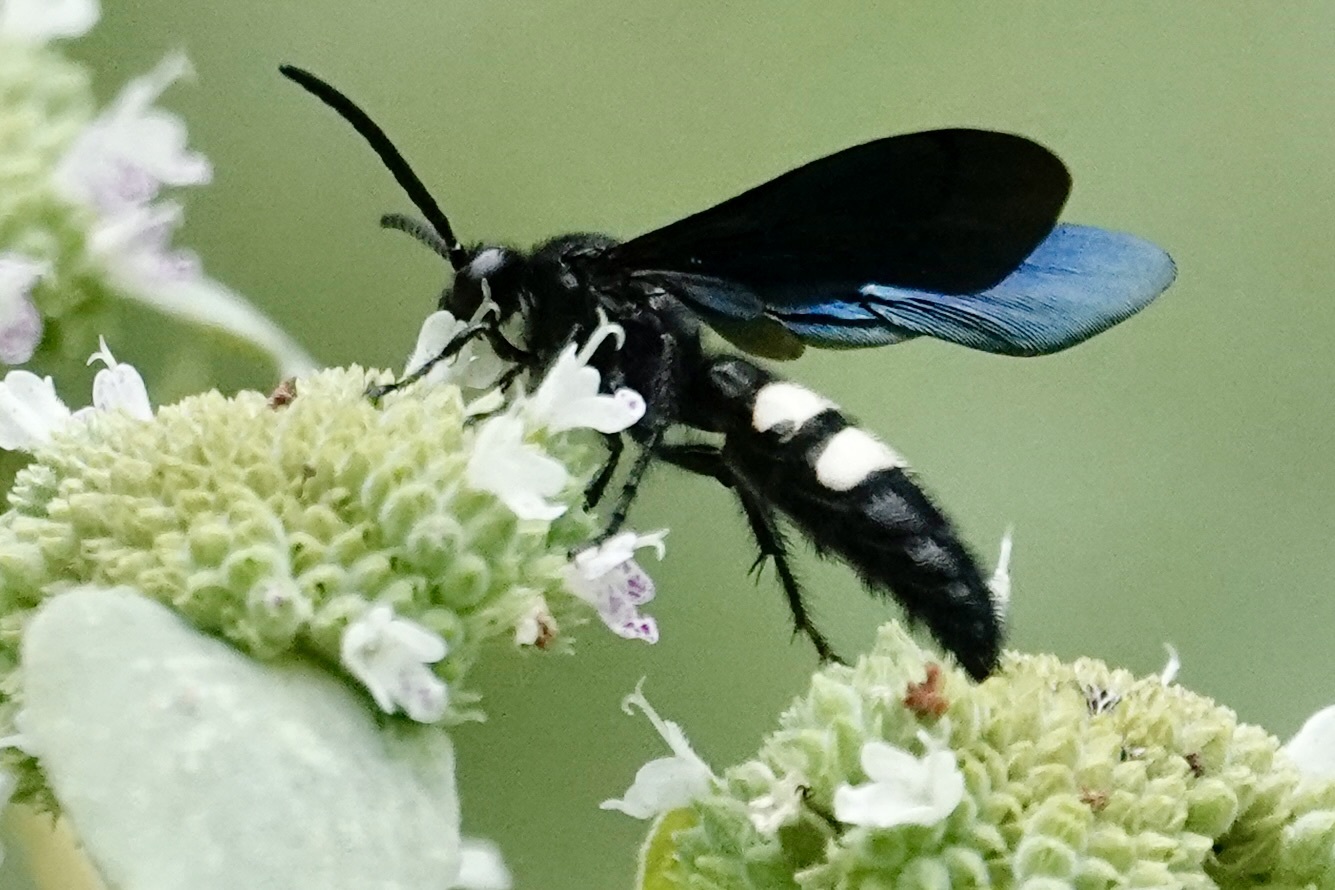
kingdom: Animalia
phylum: Arthropoda
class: Insecta
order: Hymenoptera
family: Scoliidae
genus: Scolia
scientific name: Scolia bicincta
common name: Double-banded scoliid wasp
